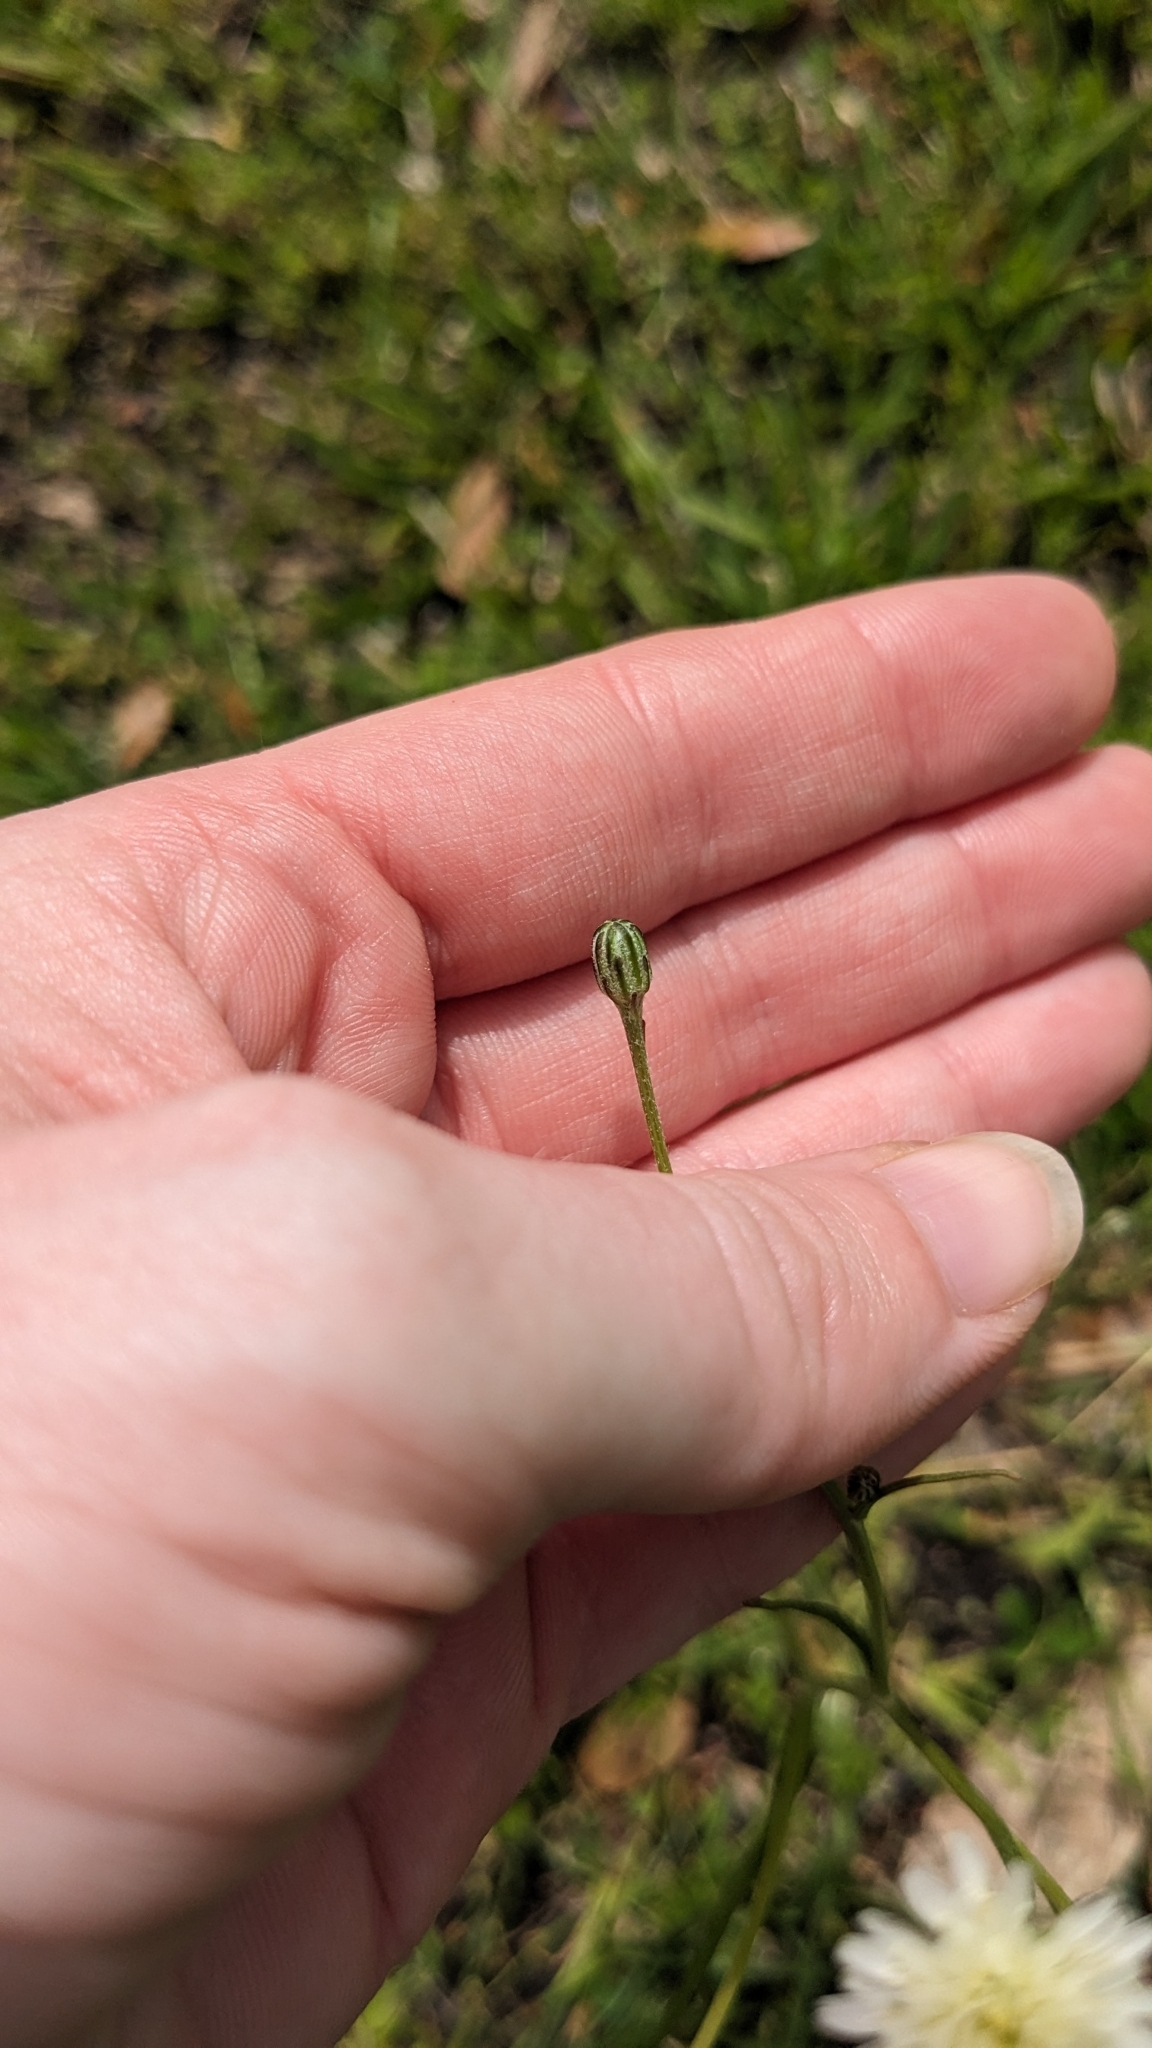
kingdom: Plantae
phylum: Tracheophyta
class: Magnoliopsida
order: Asterales
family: Asteraceae
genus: Hypochaeris
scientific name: Hypochaeris albiflora
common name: White flatweed
